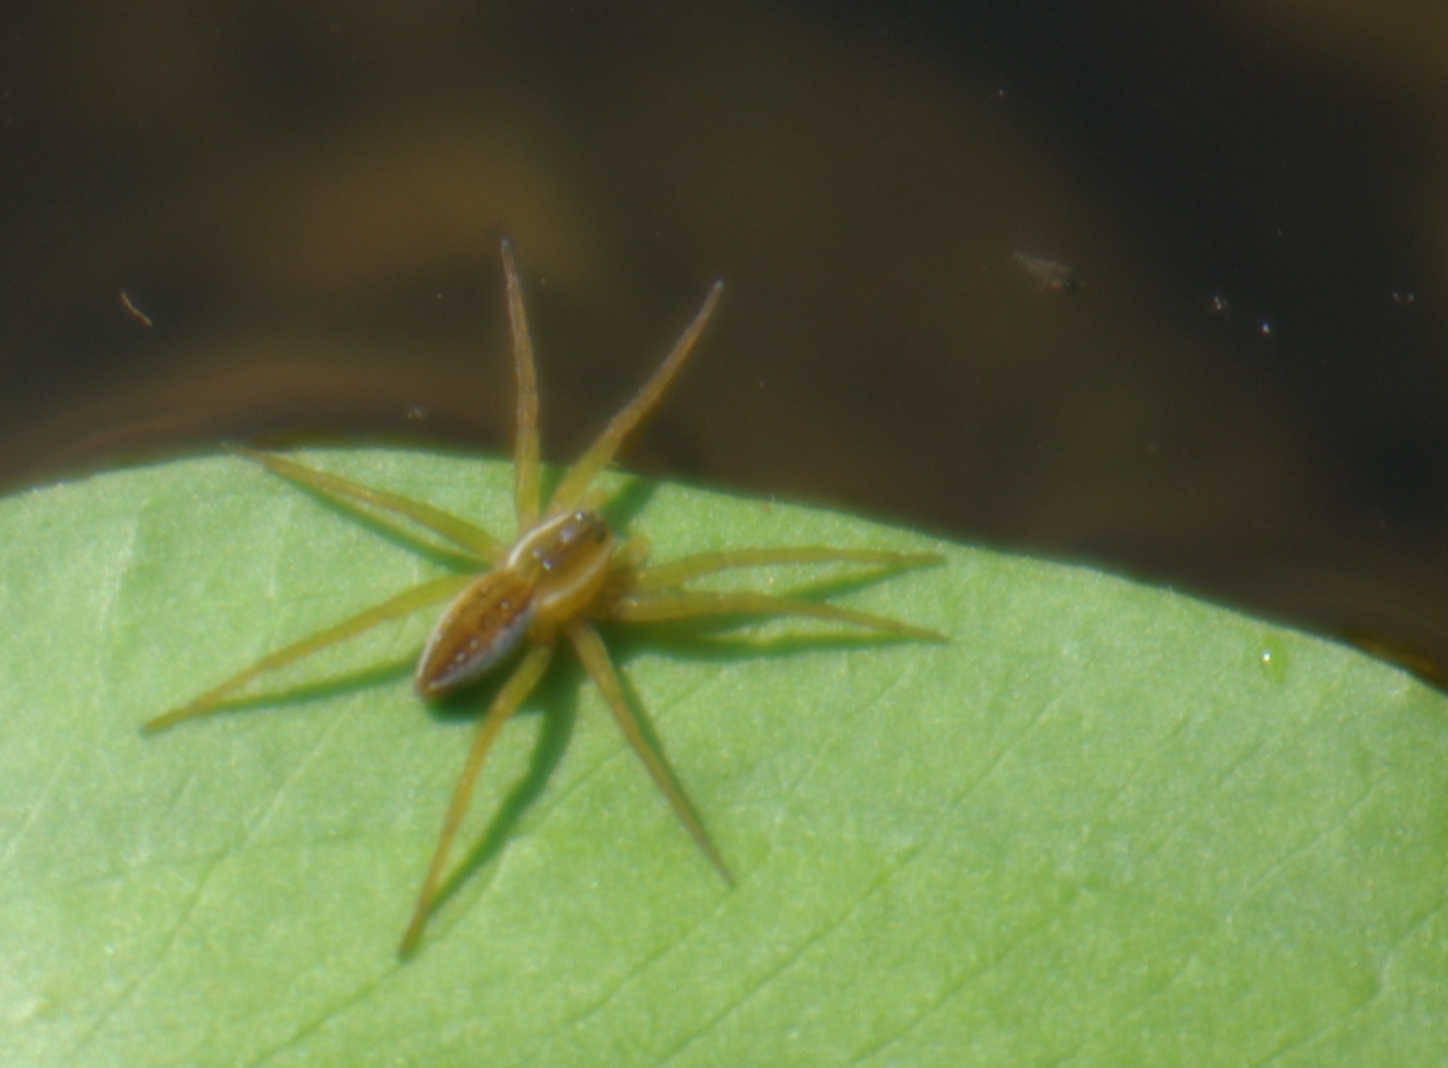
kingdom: Animalia
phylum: Arthropoda
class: Arachnida
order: Araneae
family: Pisauridae
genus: Dolomedes
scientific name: Dolomedes triton
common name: Six-spotted fishing spider
